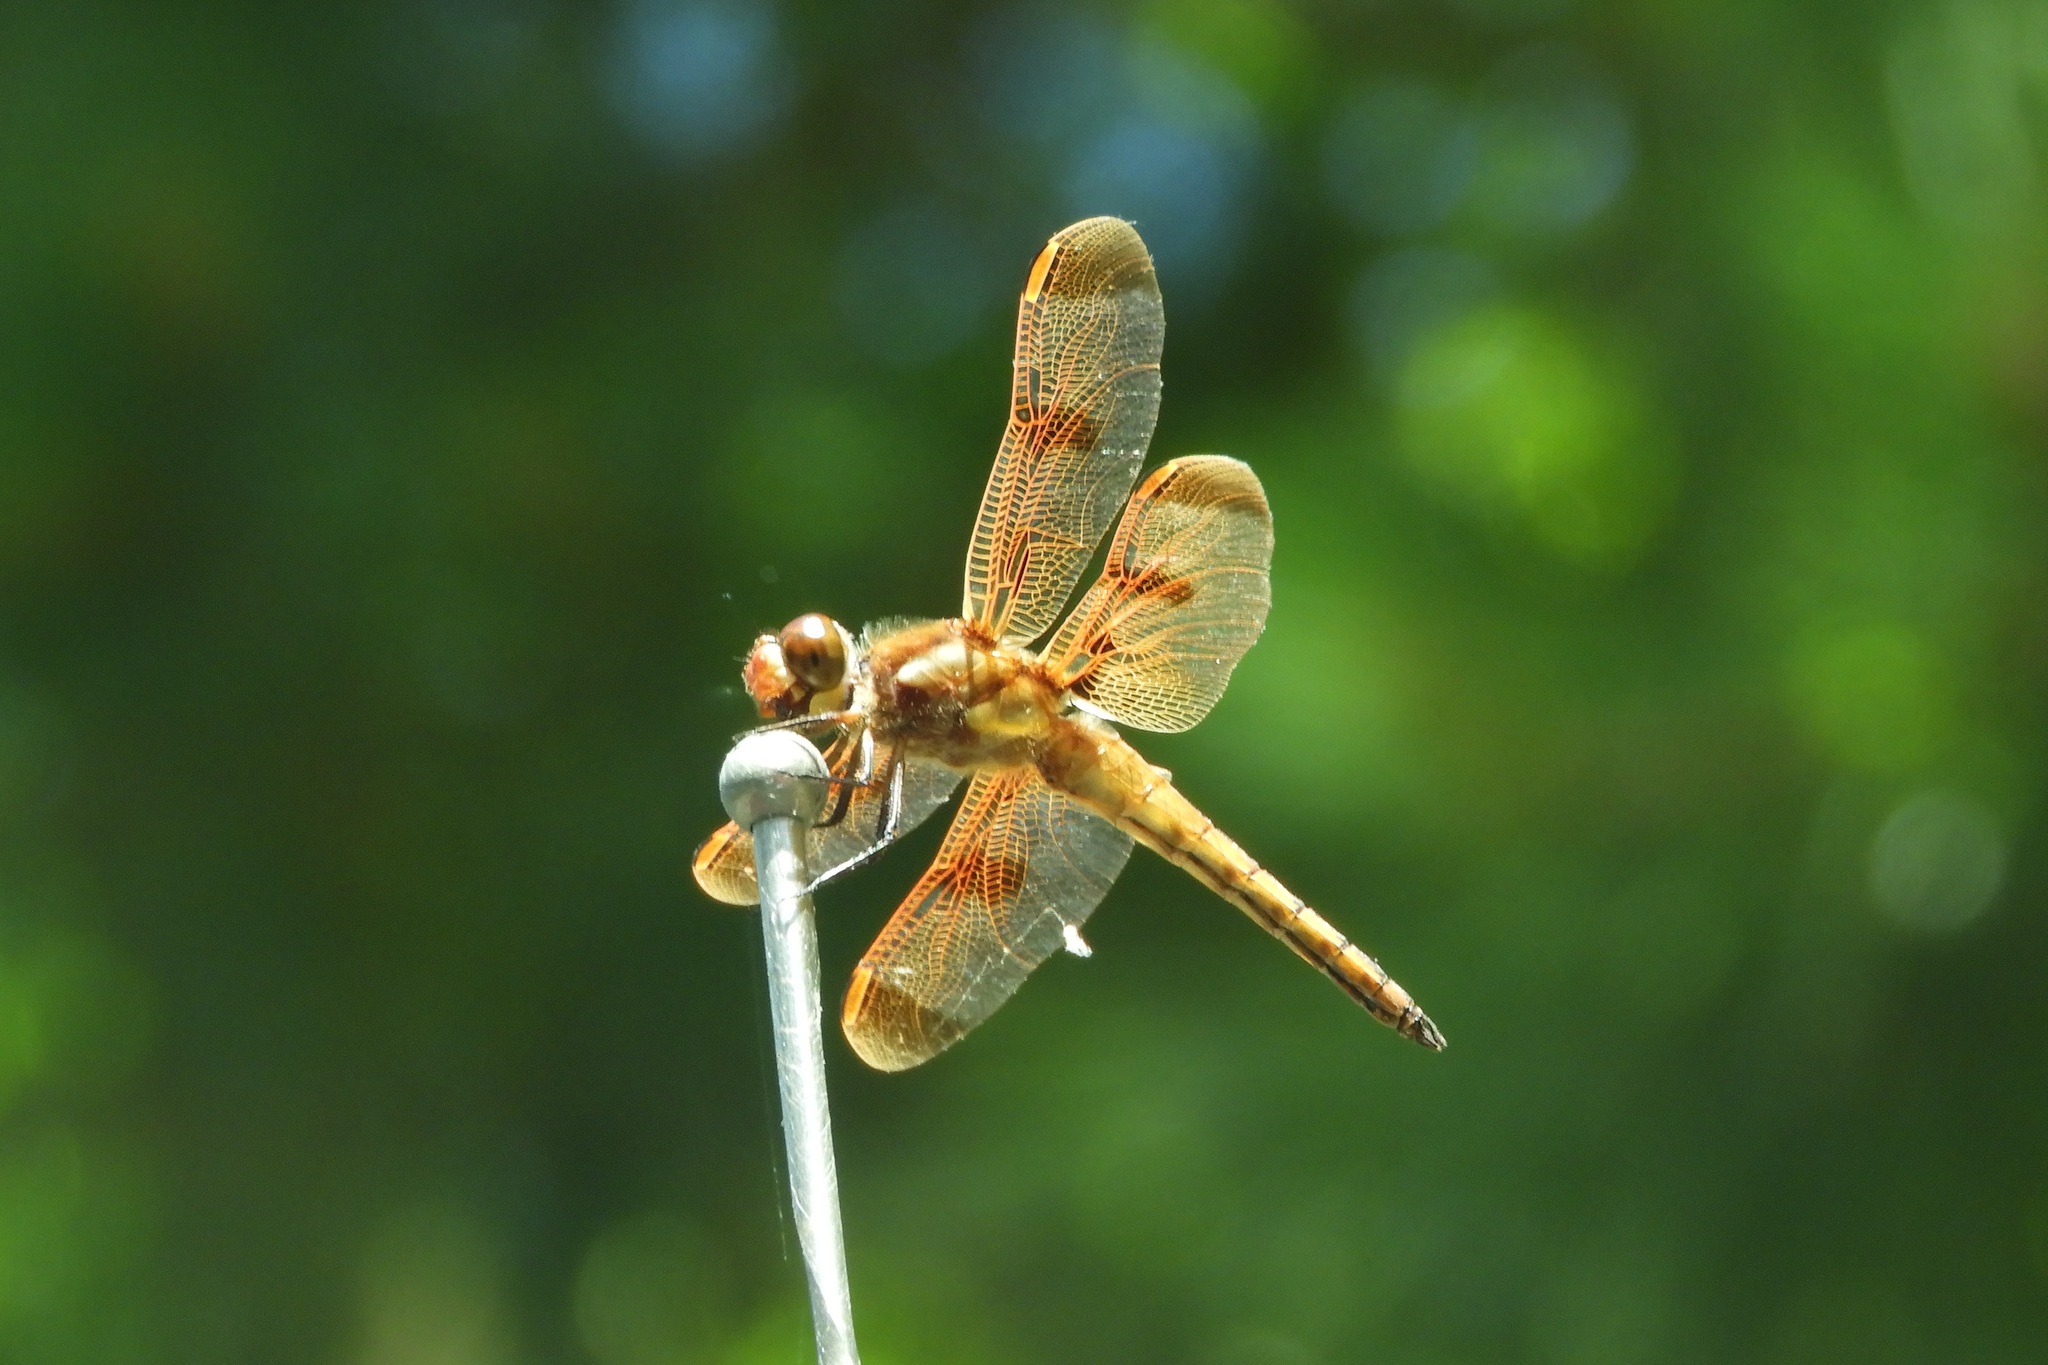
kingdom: Animalia
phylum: Arthropoda
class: Insecta
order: Odonata
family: Libellulidae
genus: Libellula
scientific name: Libellula semifasciata
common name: Painted skimmer
